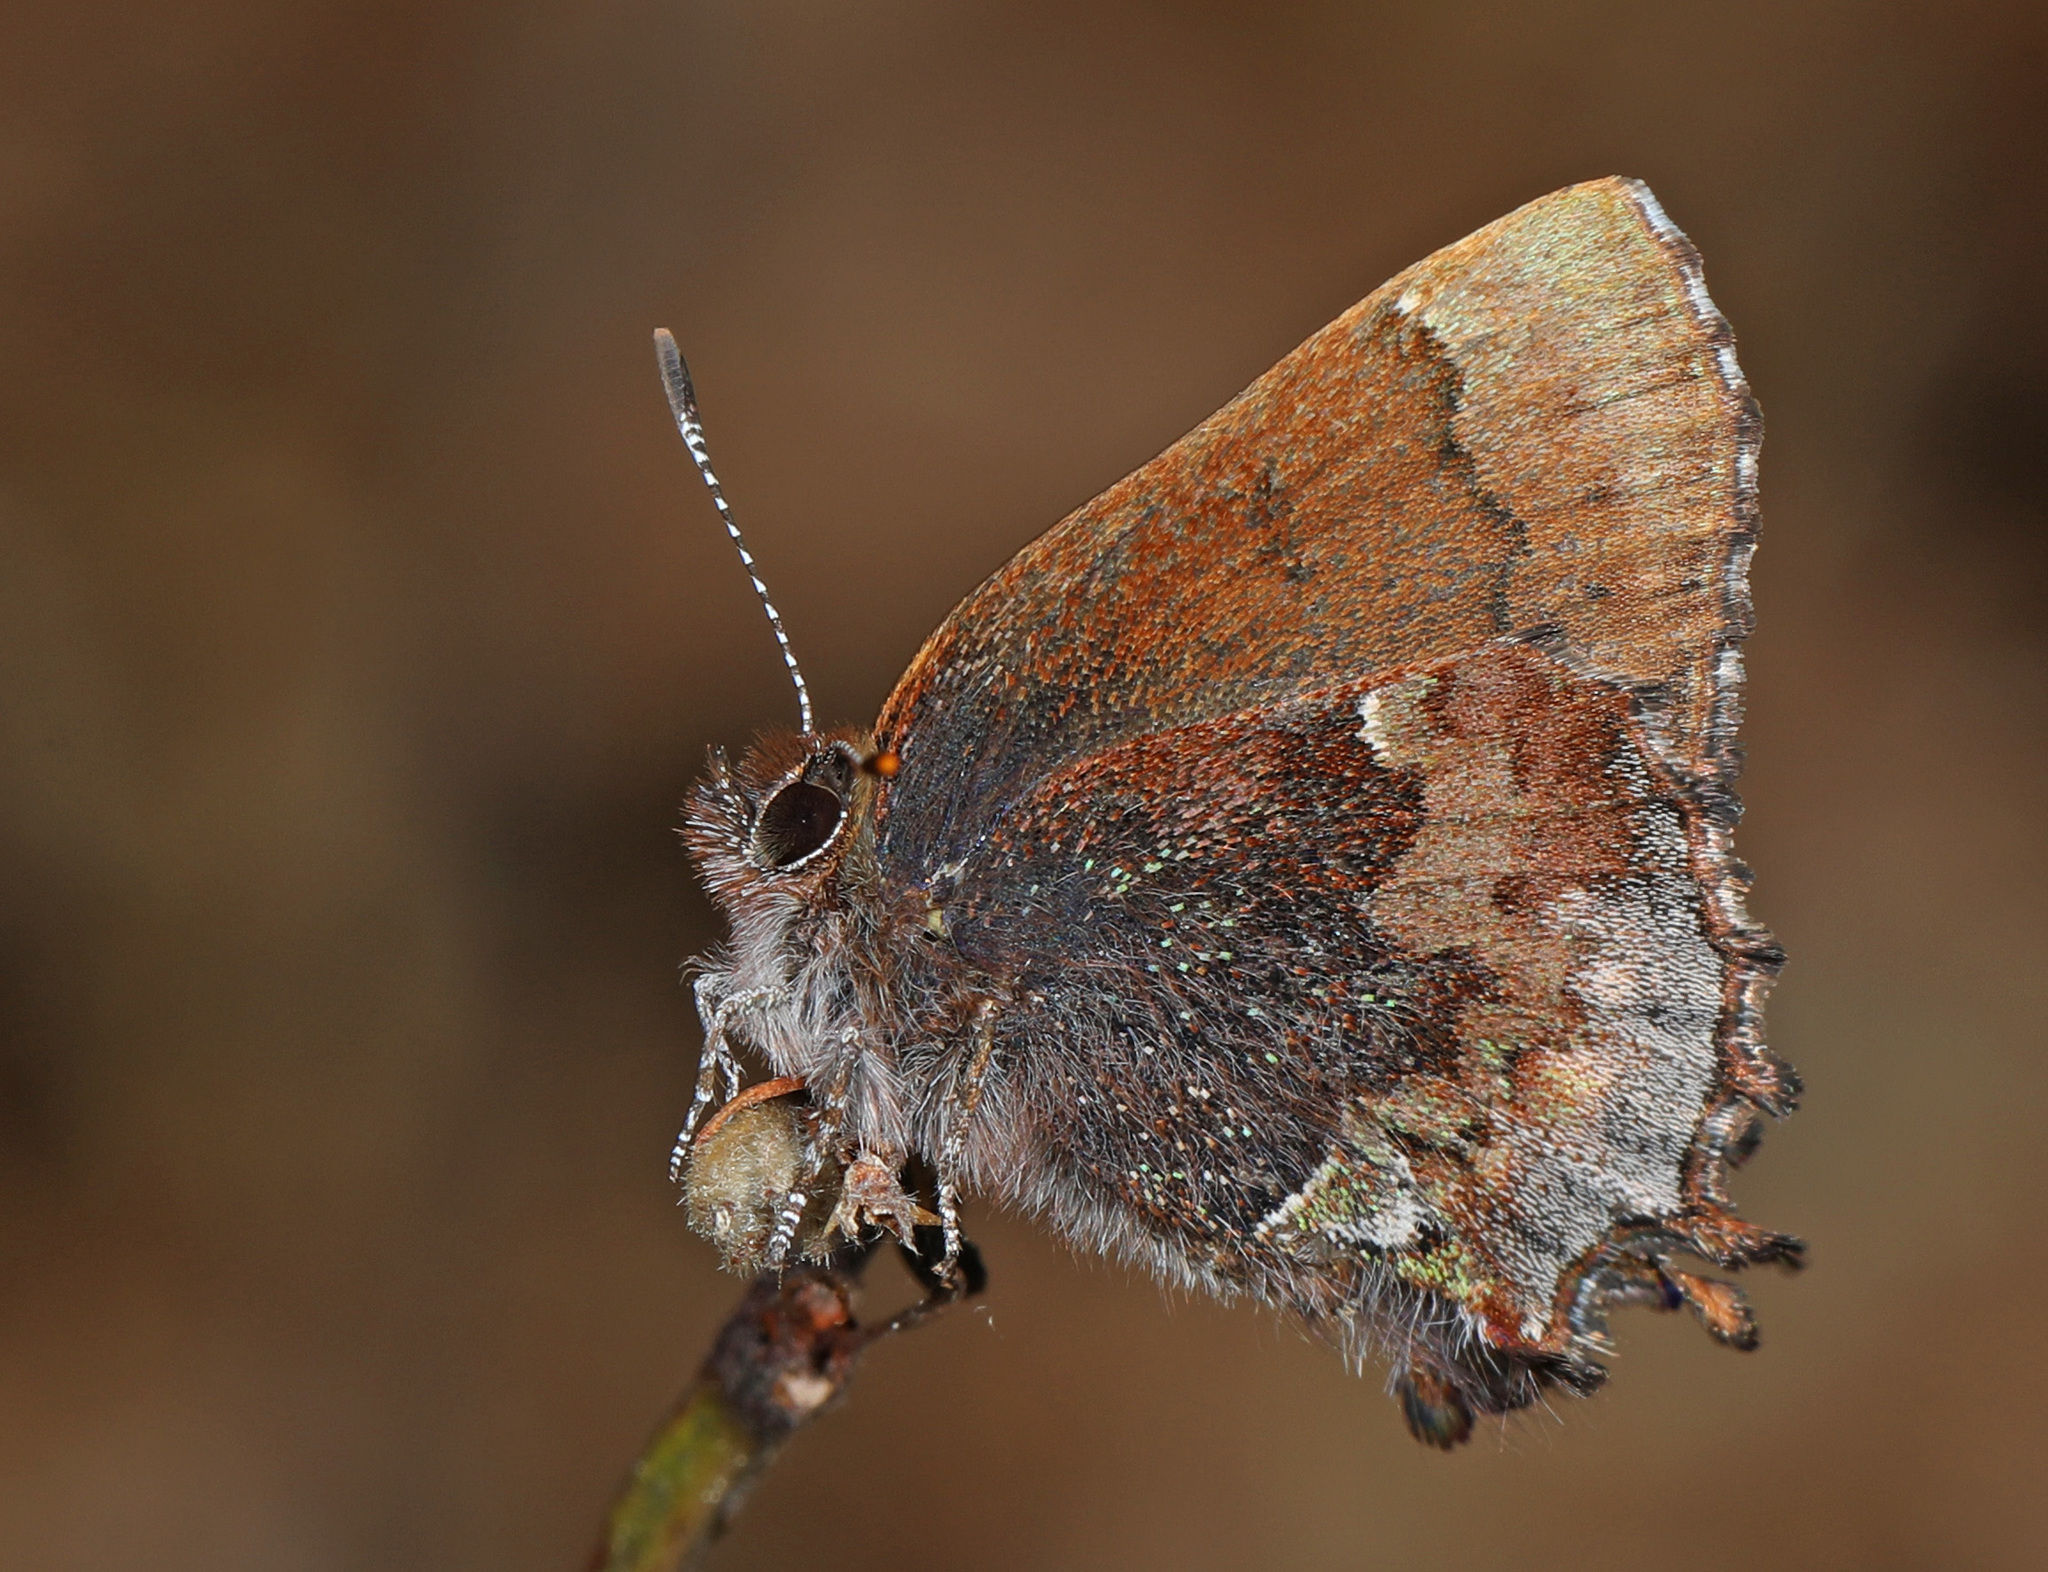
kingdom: Animalia
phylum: Arthropoda
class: Insecta
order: Lepidoptera
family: Lycaenidae
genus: Incisalia
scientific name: Incisalia henrici
